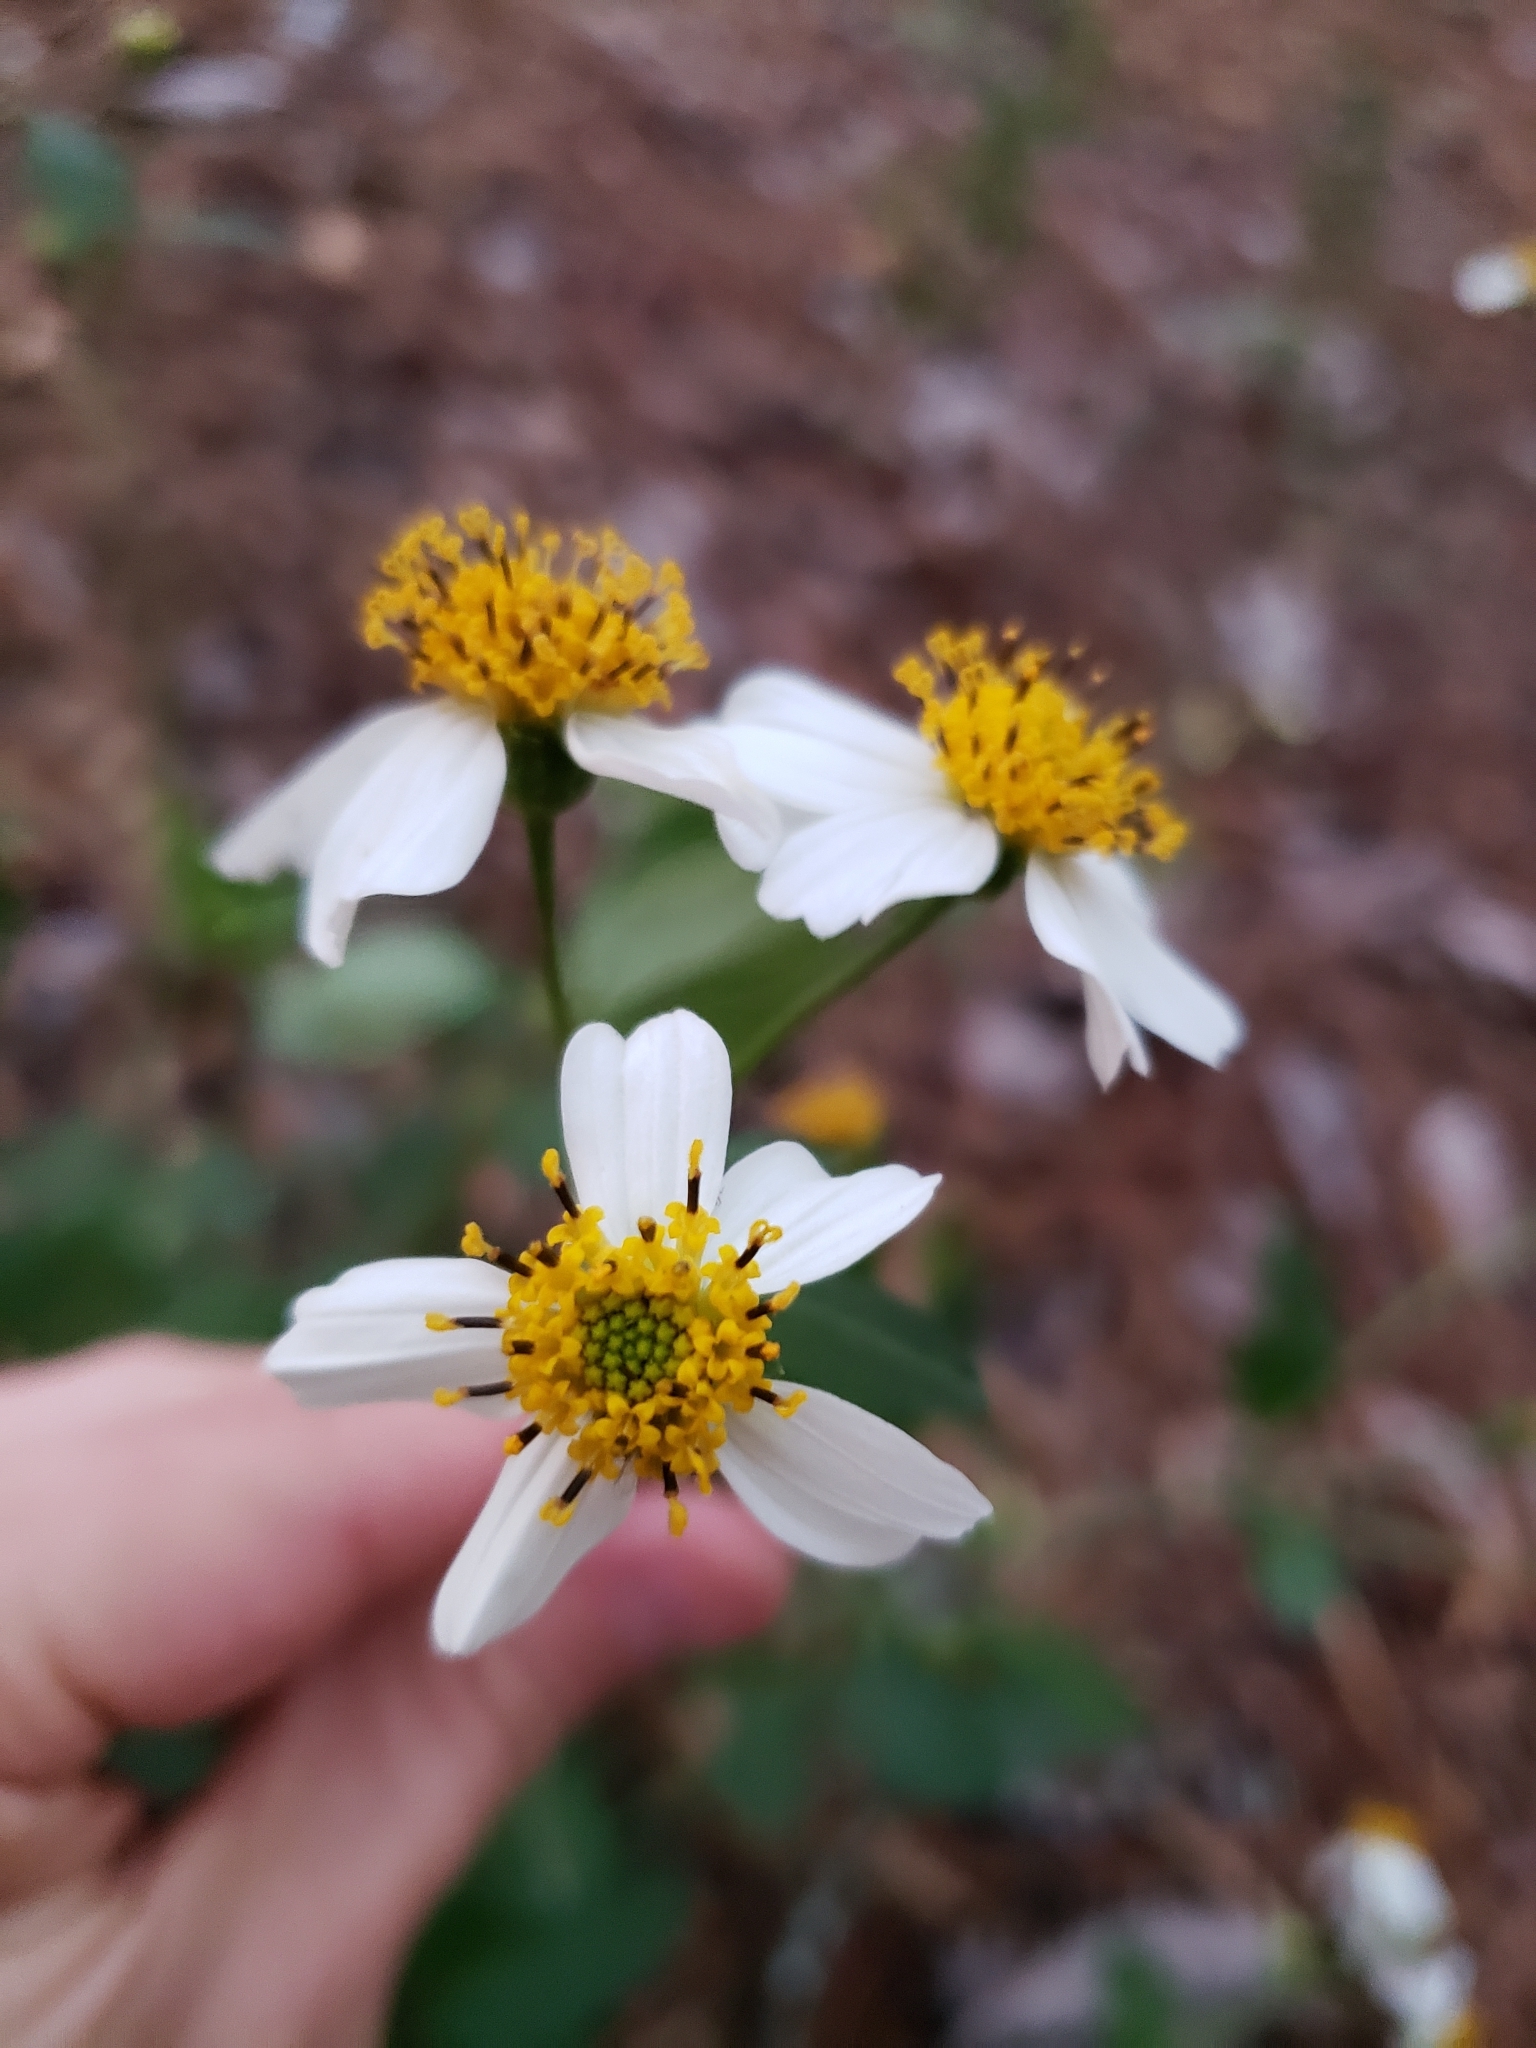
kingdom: Plantae
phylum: Tracheophyta
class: Magnoliopsida
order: Asterales
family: Asteraceae
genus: Bidens
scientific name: Bidens alba
